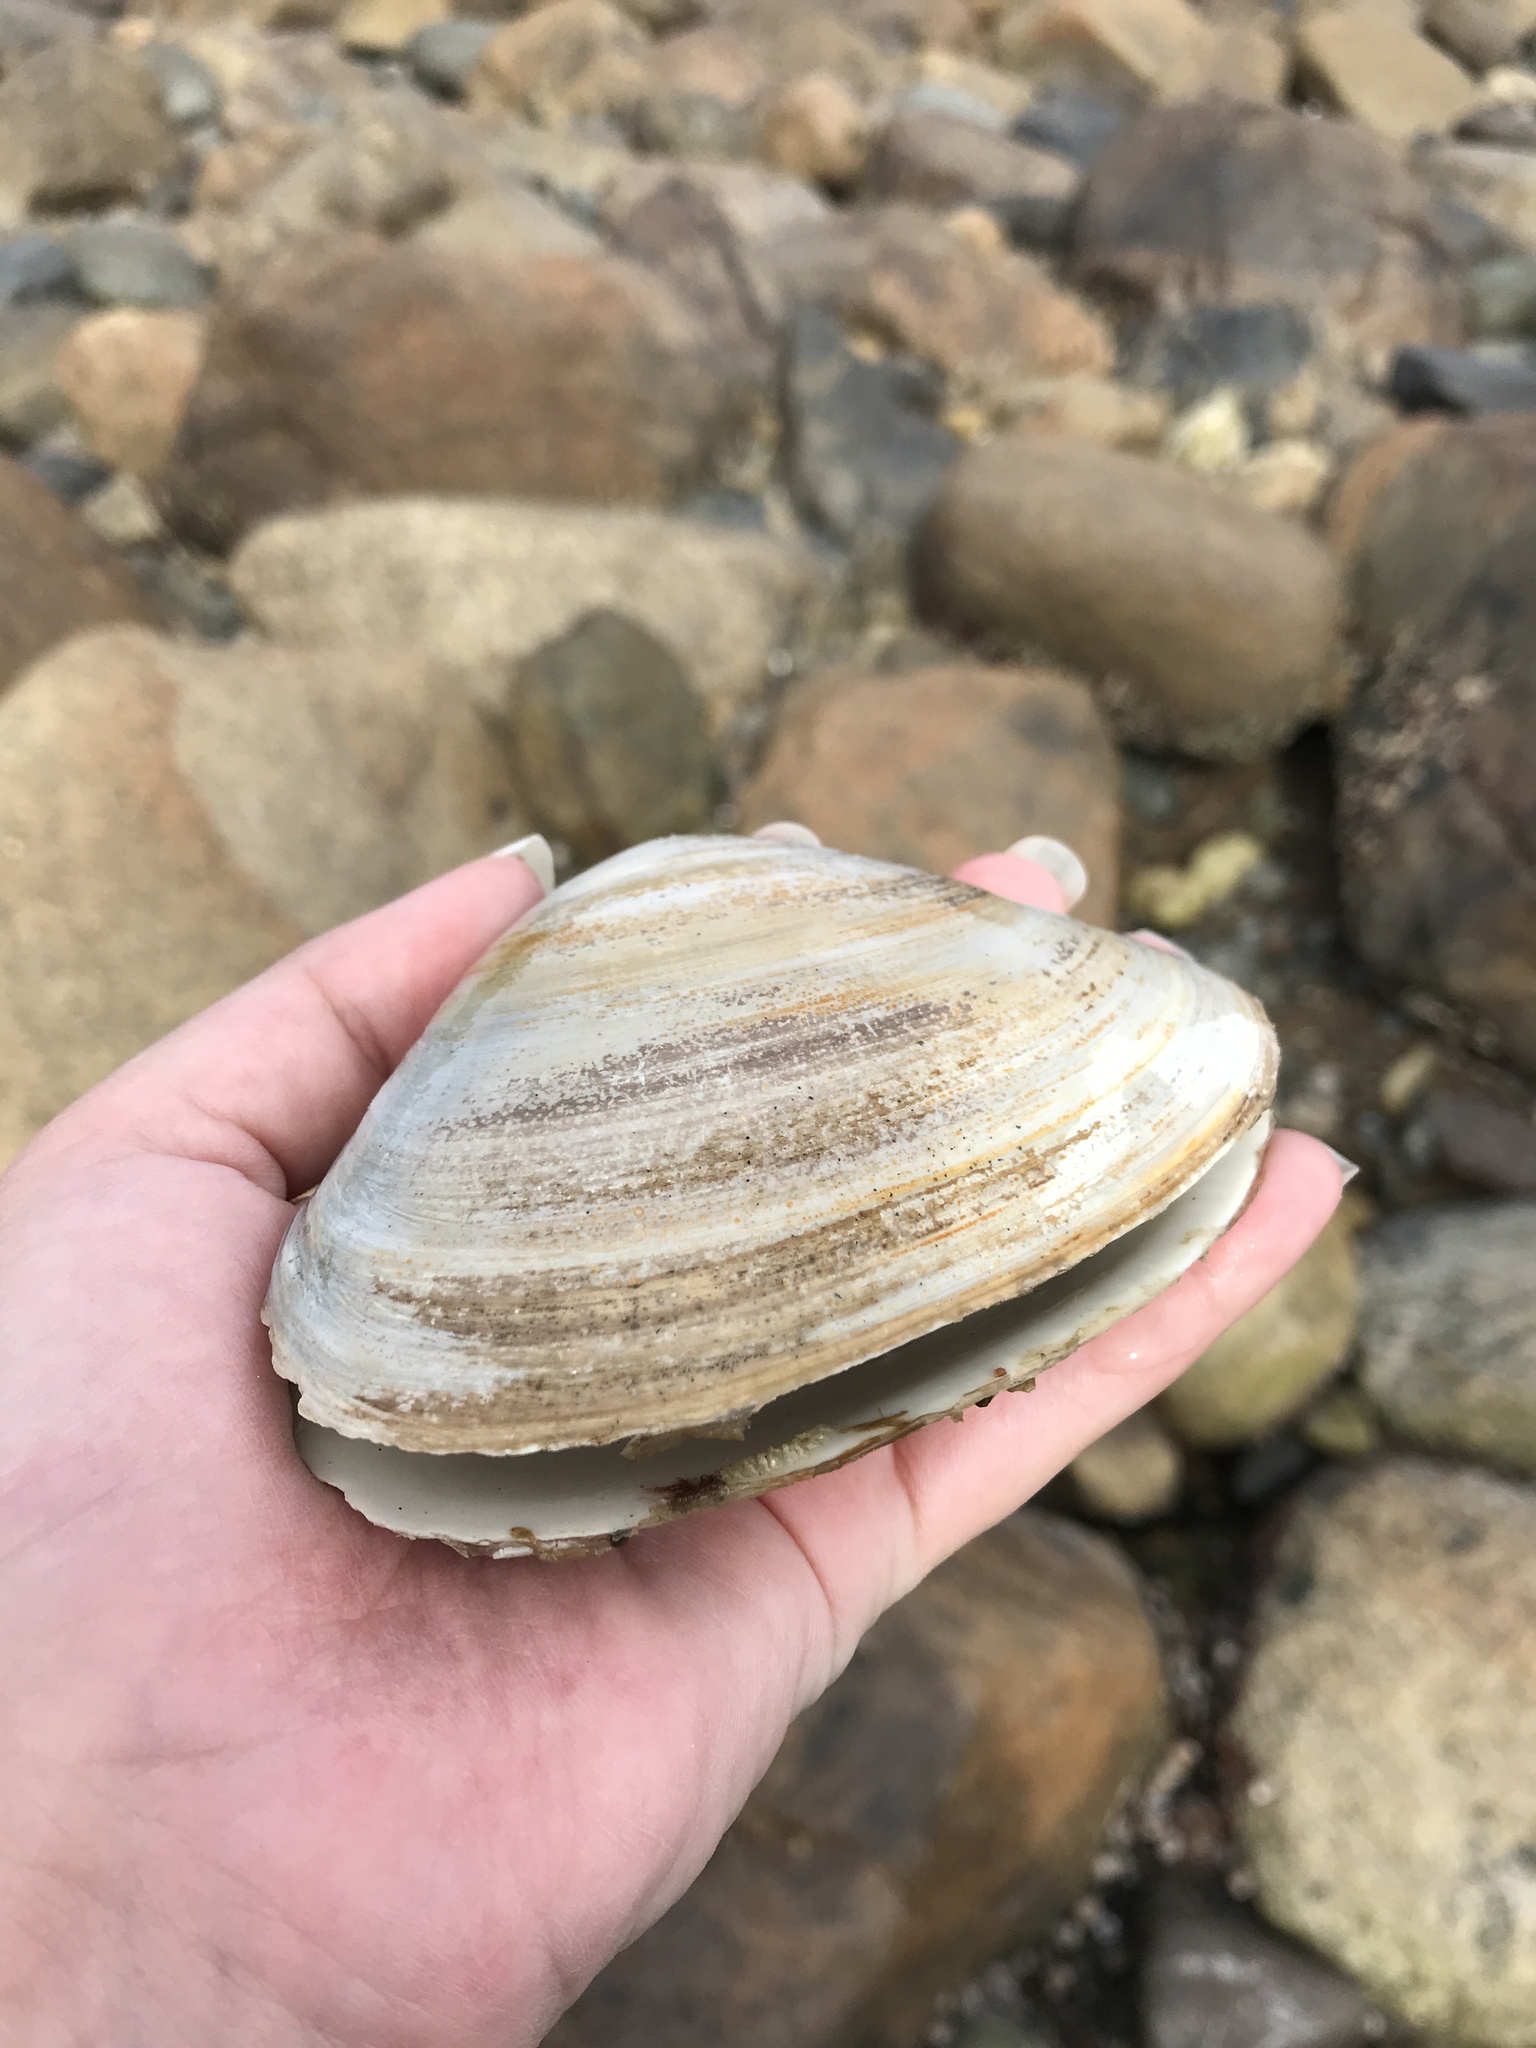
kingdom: Animalia
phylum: Mollusca
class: Bivalvia
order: Venerida
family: Mactridae
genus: Spisula
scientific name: Spisula solidissima
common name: Atlantic surf clam
